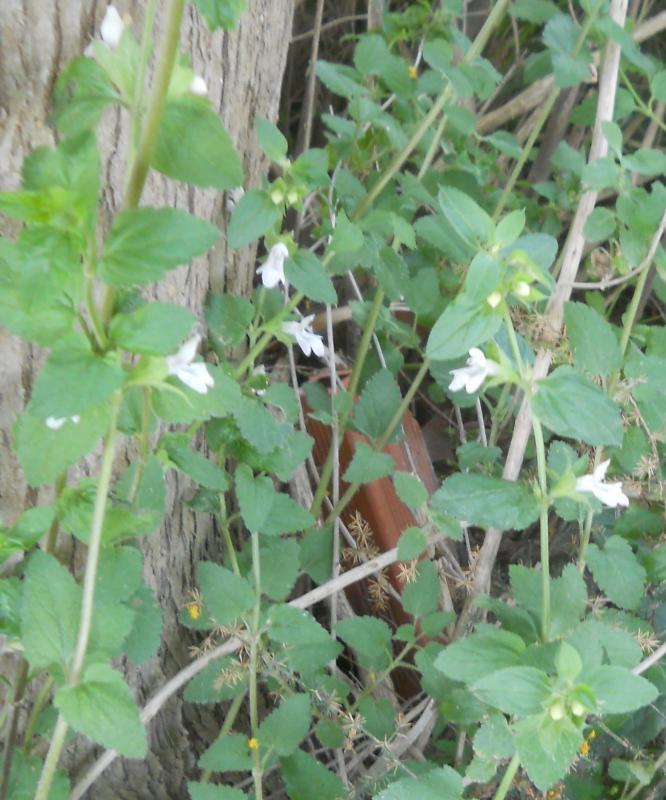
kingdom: Plantae
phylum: Tracheophyta
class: Magnoliopsida
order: Lamiales
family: Lamiaceae
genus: Prasium
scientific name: Prasium majus
